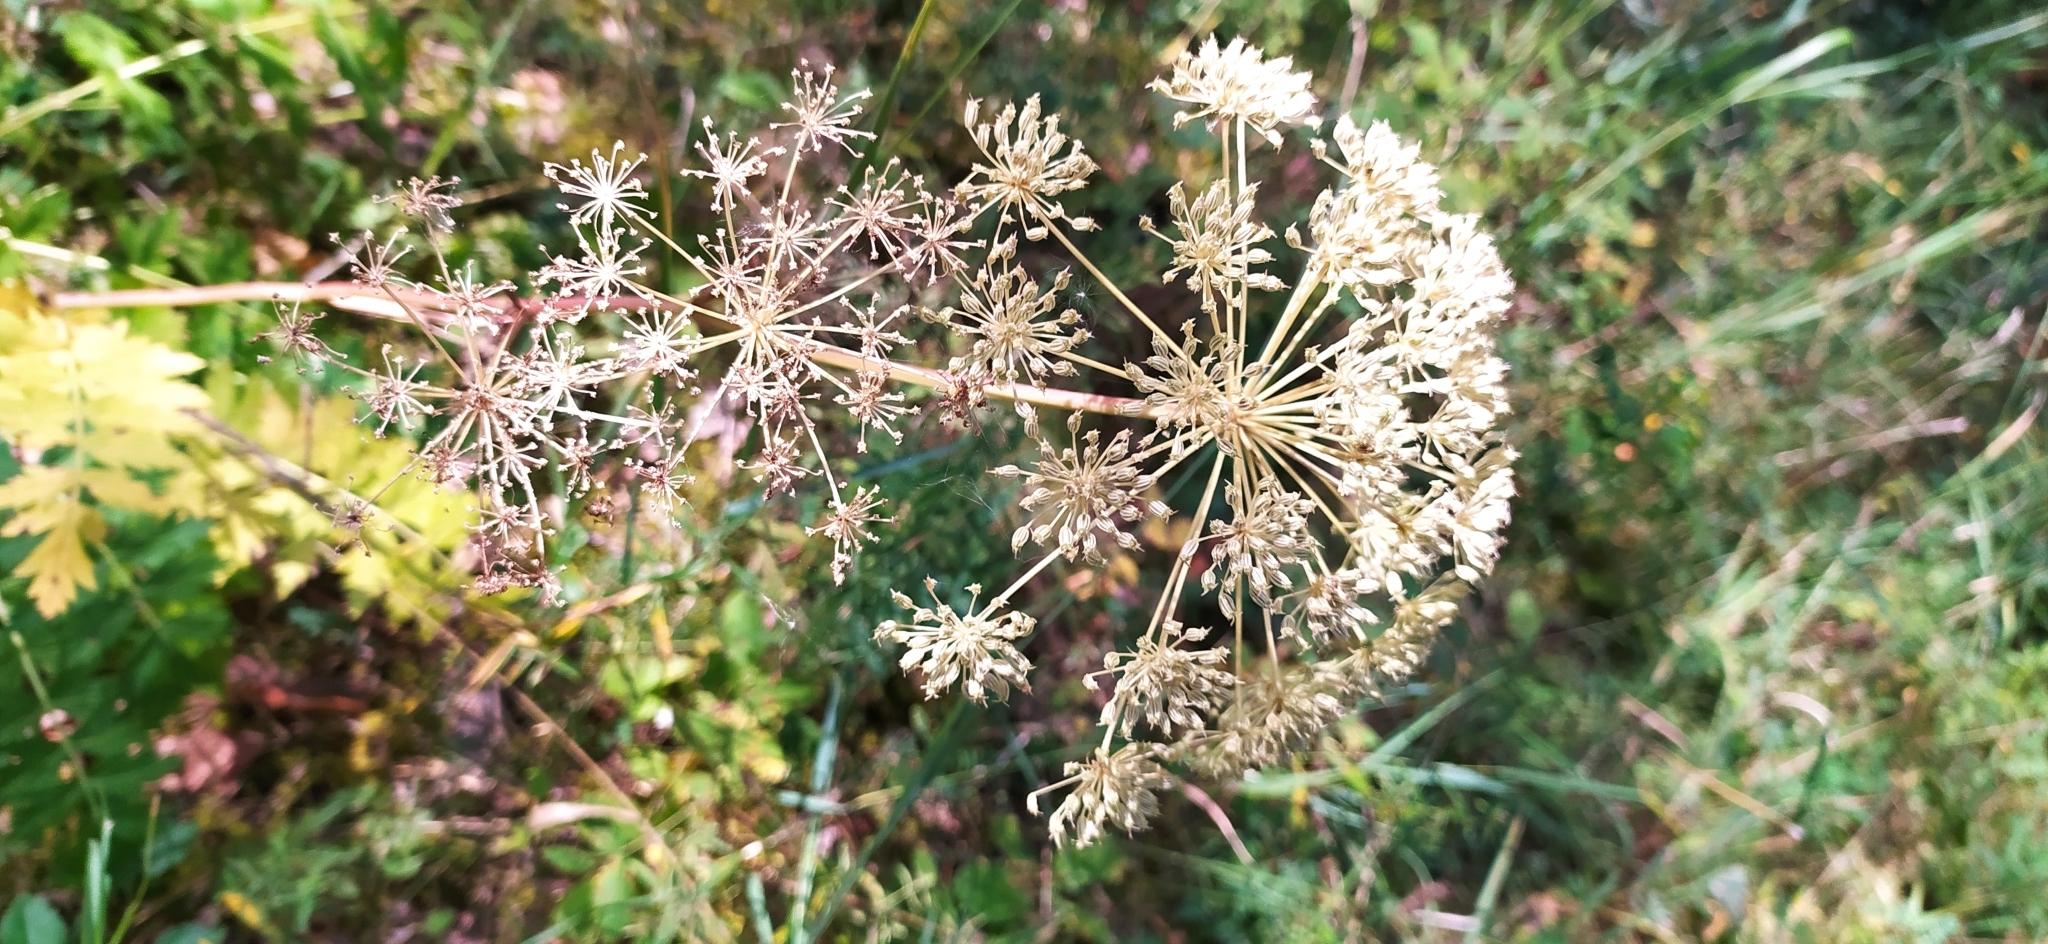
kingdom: Plantae
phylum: Tracheophyta
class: Magnoliopsida
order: Apiales
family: Apiaceae
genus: Seseli
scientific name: Seseli krylovii
